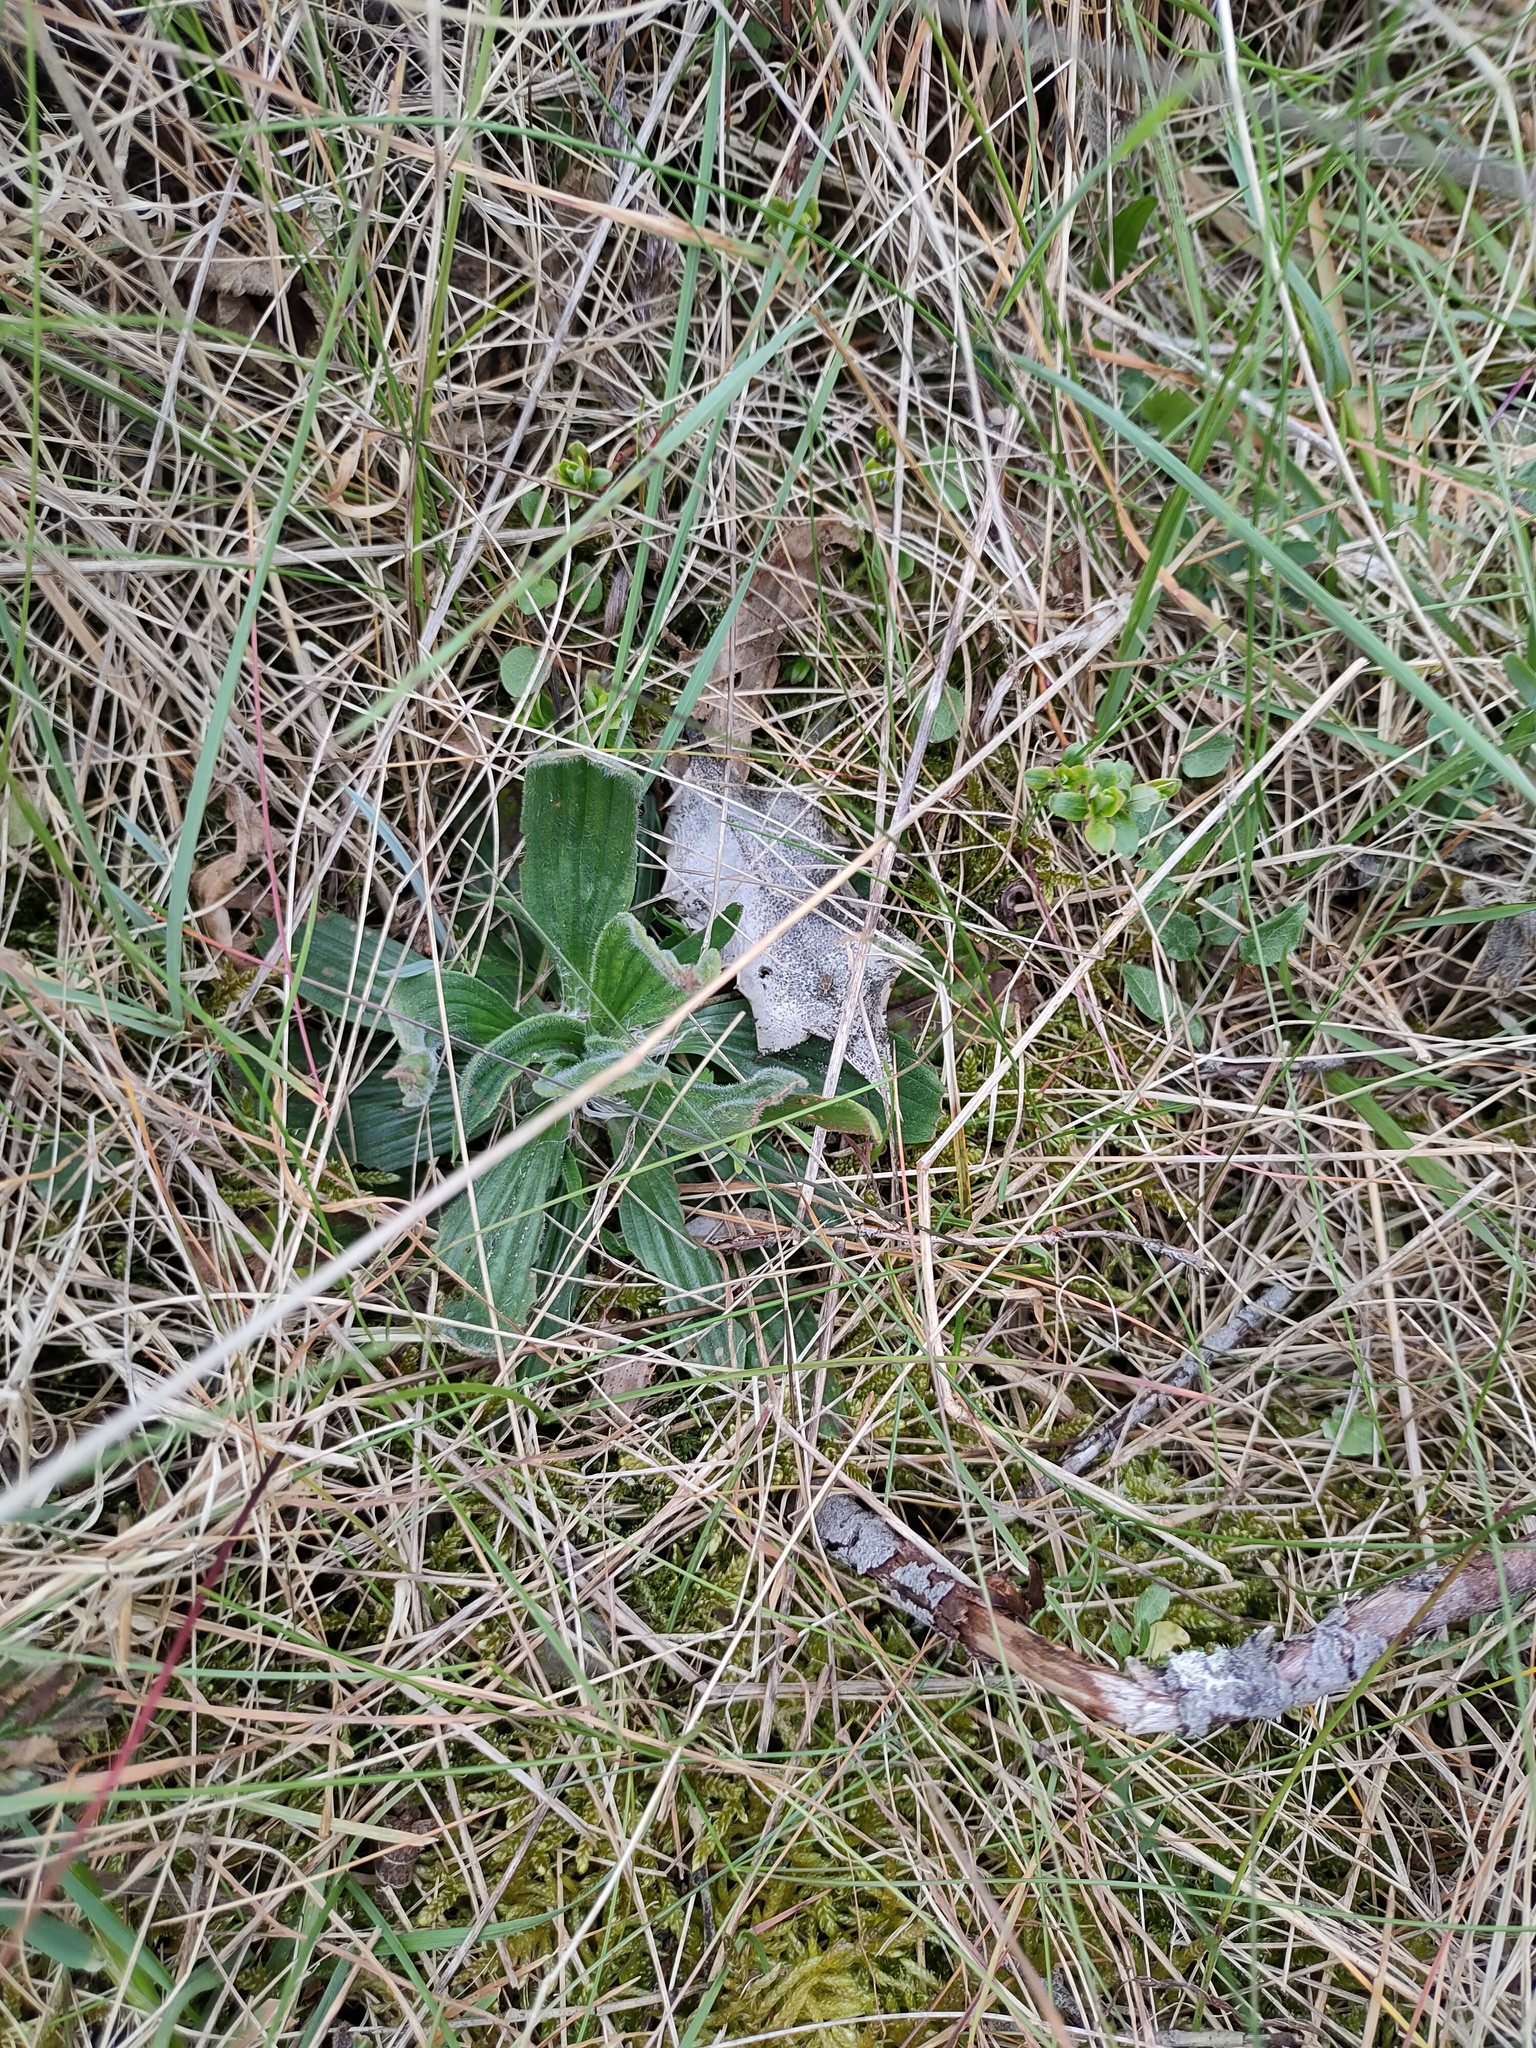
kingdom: Plantae
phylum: Tracheophyta
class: Magnoliopsida
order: Lamiales
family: Plantaginaceae
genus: Plantago
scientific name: Plantago lanceolata
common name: Ribwort plantain
